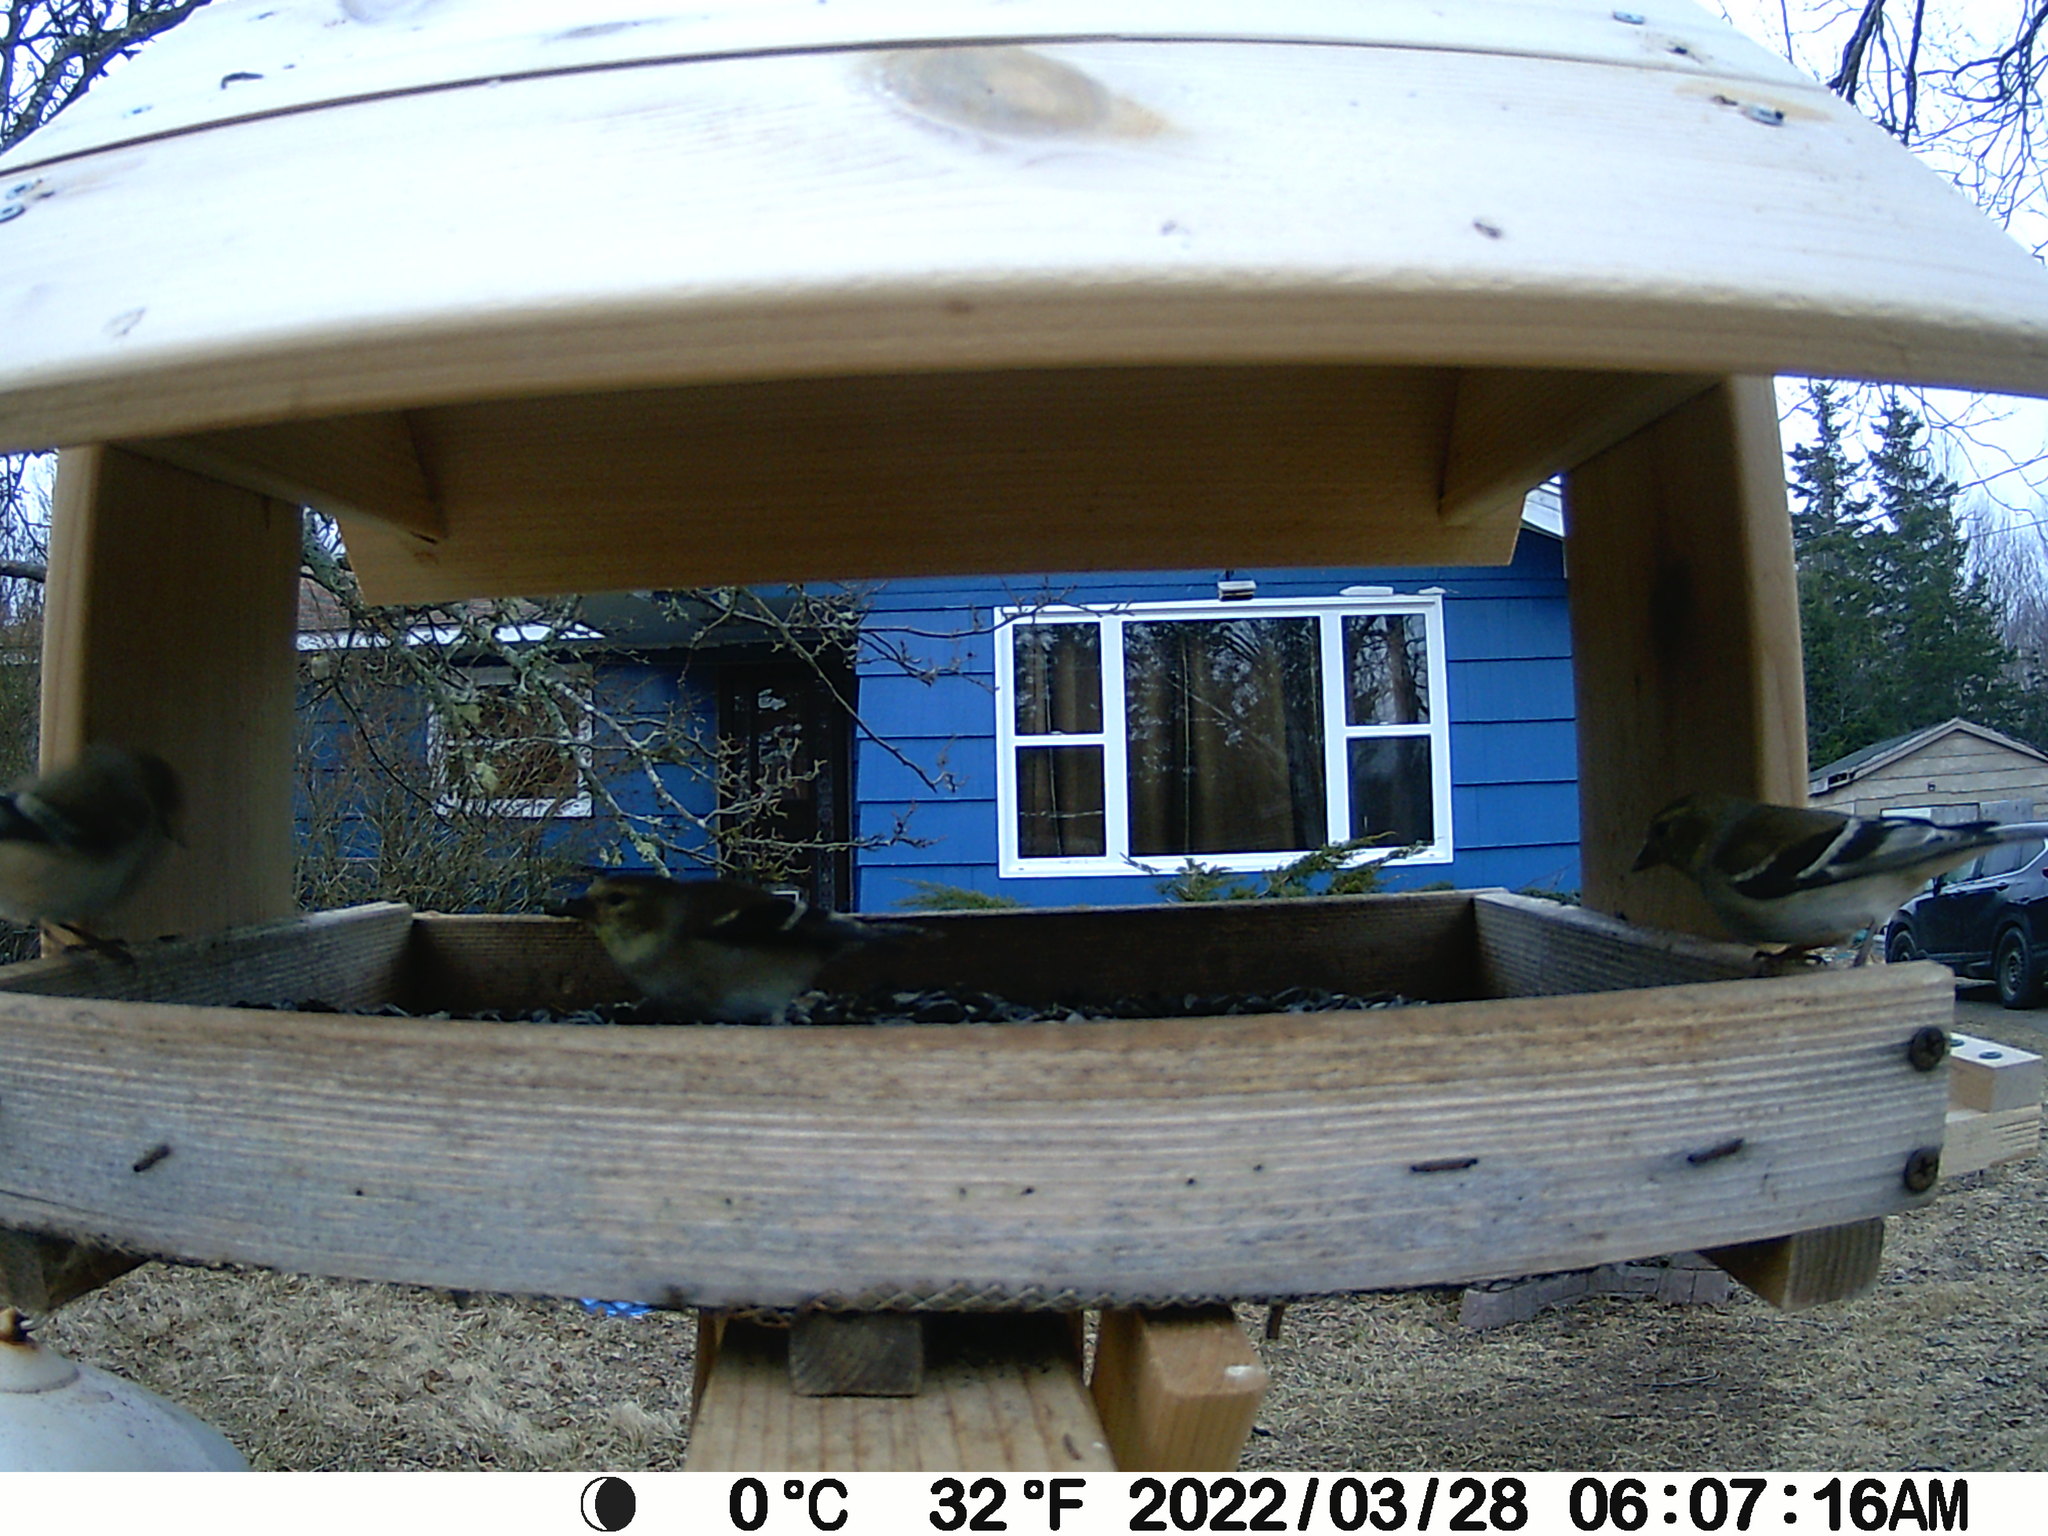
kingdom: Animalia
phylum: Chordata
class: Aves
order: Passeriformes
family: Fringillidae
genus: Spinus
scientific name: Spinus tristis
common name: American goldfinch
